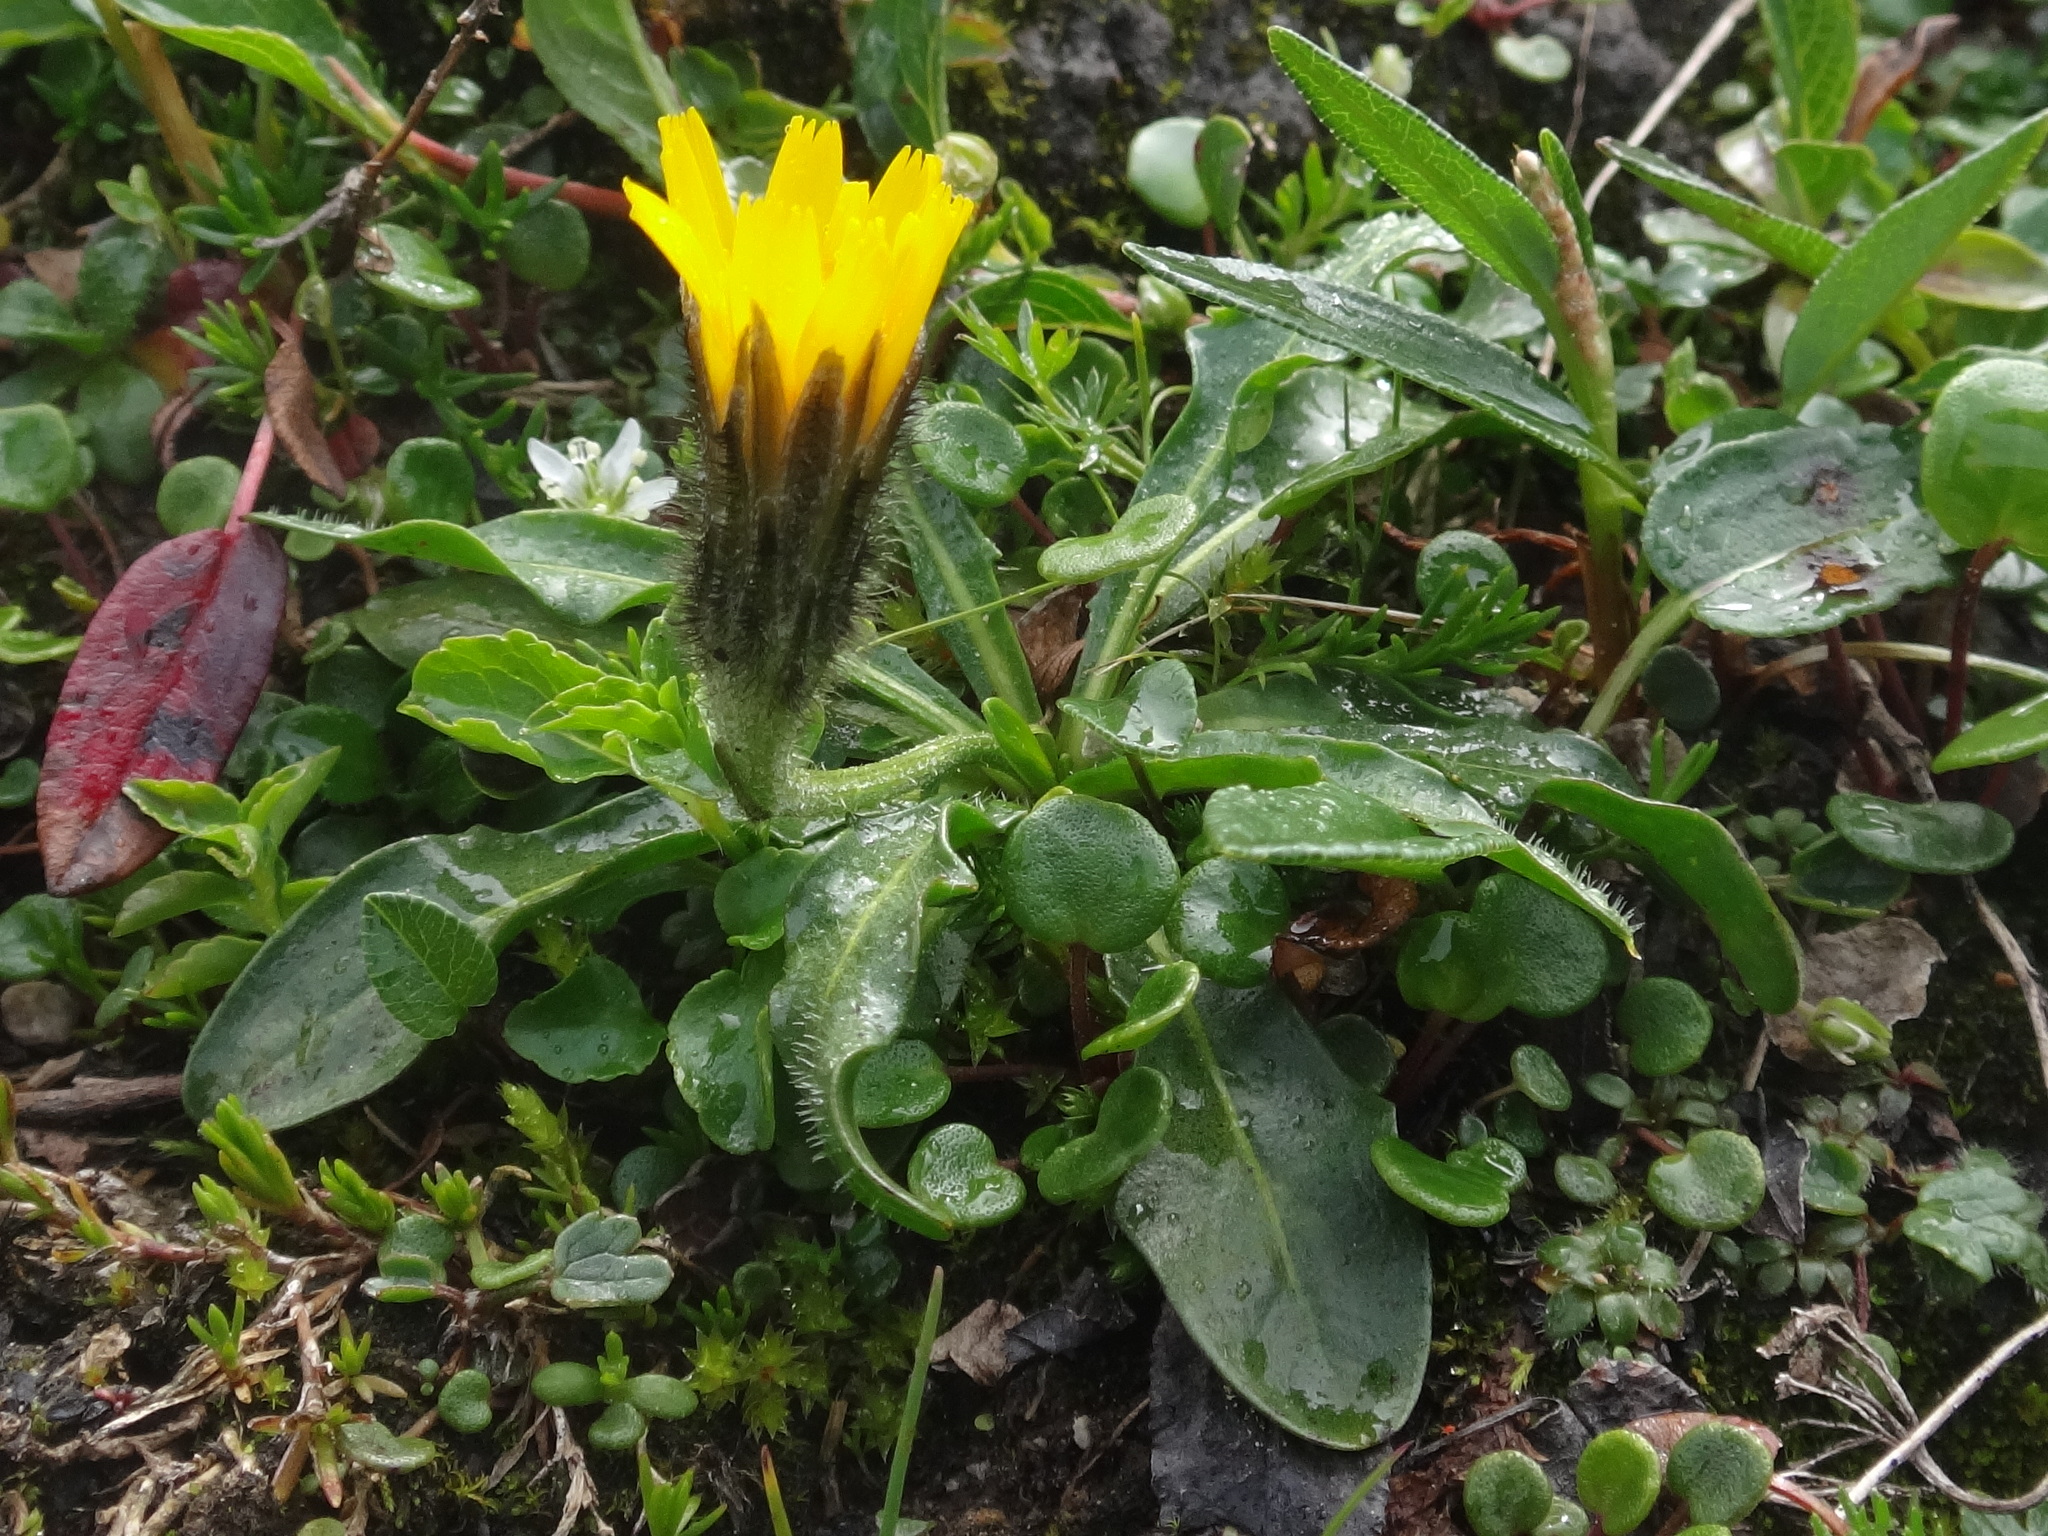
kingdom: Plantae
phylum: Tracheophyta
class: Magnoliopsida
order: Asterales
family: Asteraceae
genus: Scorzoneroides
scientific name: Scorzoneroides montana
